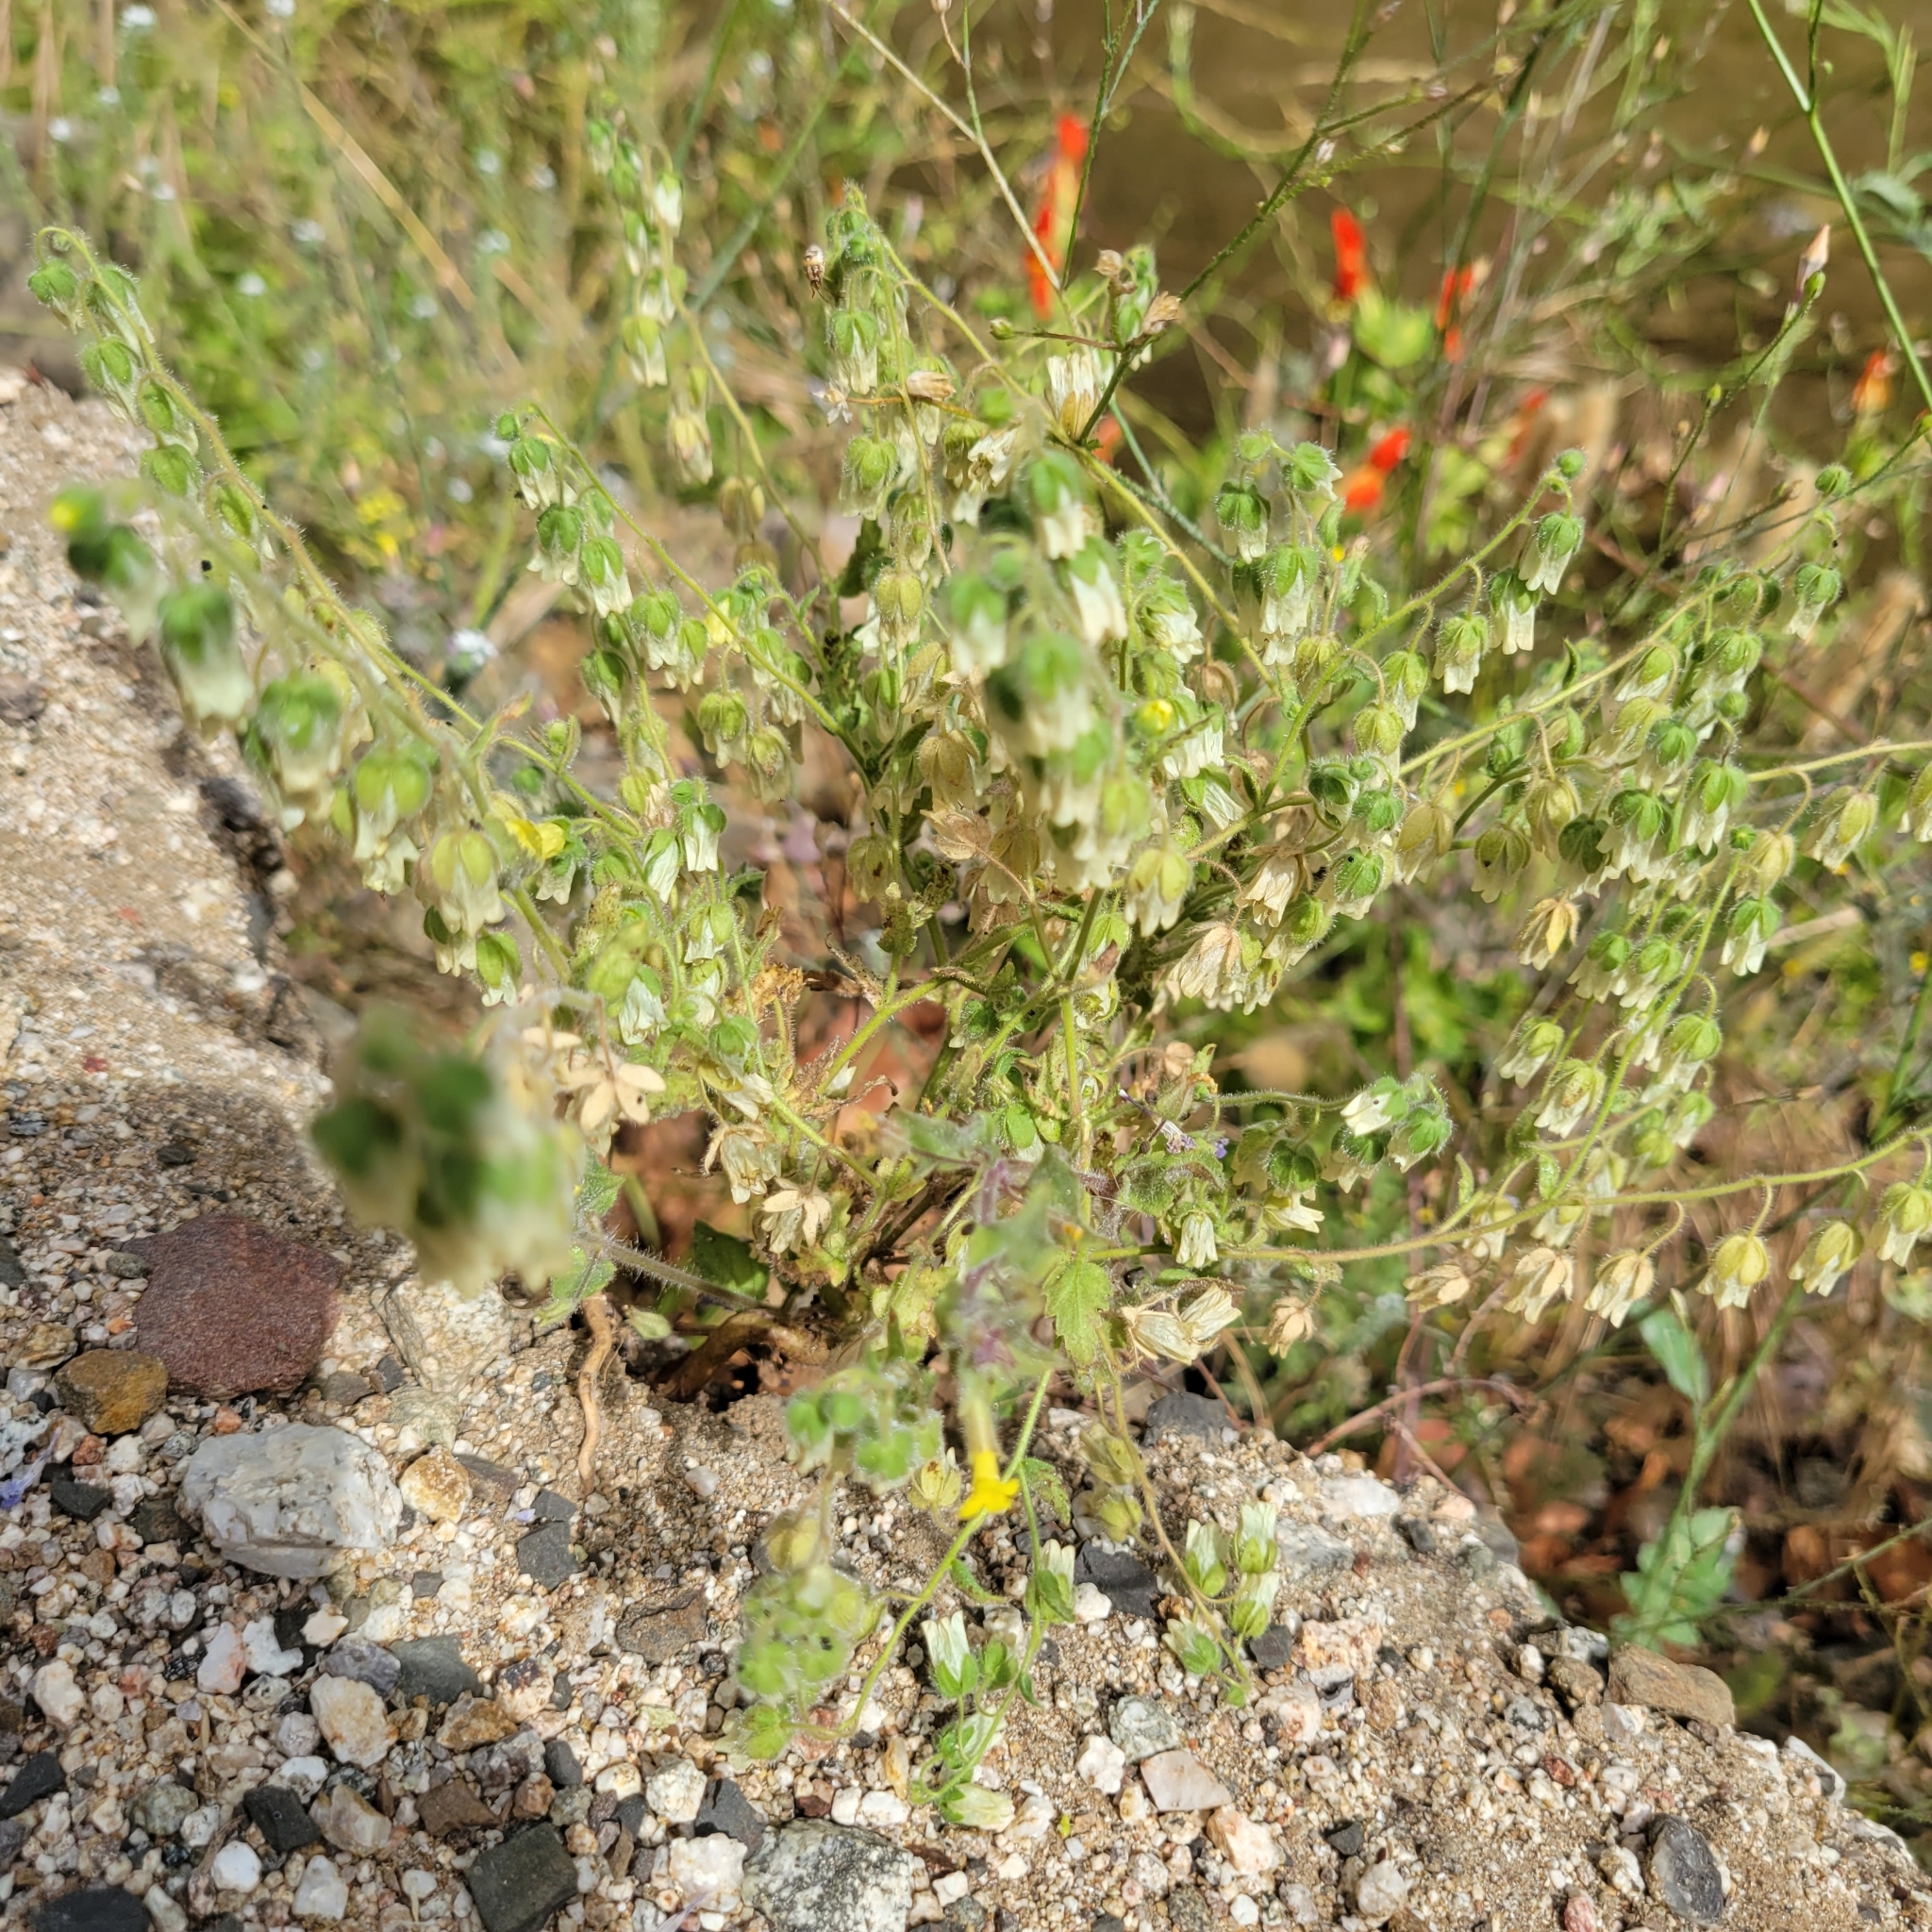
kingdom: Plantae
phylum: Tracheophyta
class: Magnoliopsida
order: Boraginales
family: Hydrophyllaceae
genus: Emmenanthe
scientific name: Emmenanthe penduliflora
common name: Whispering-bells
